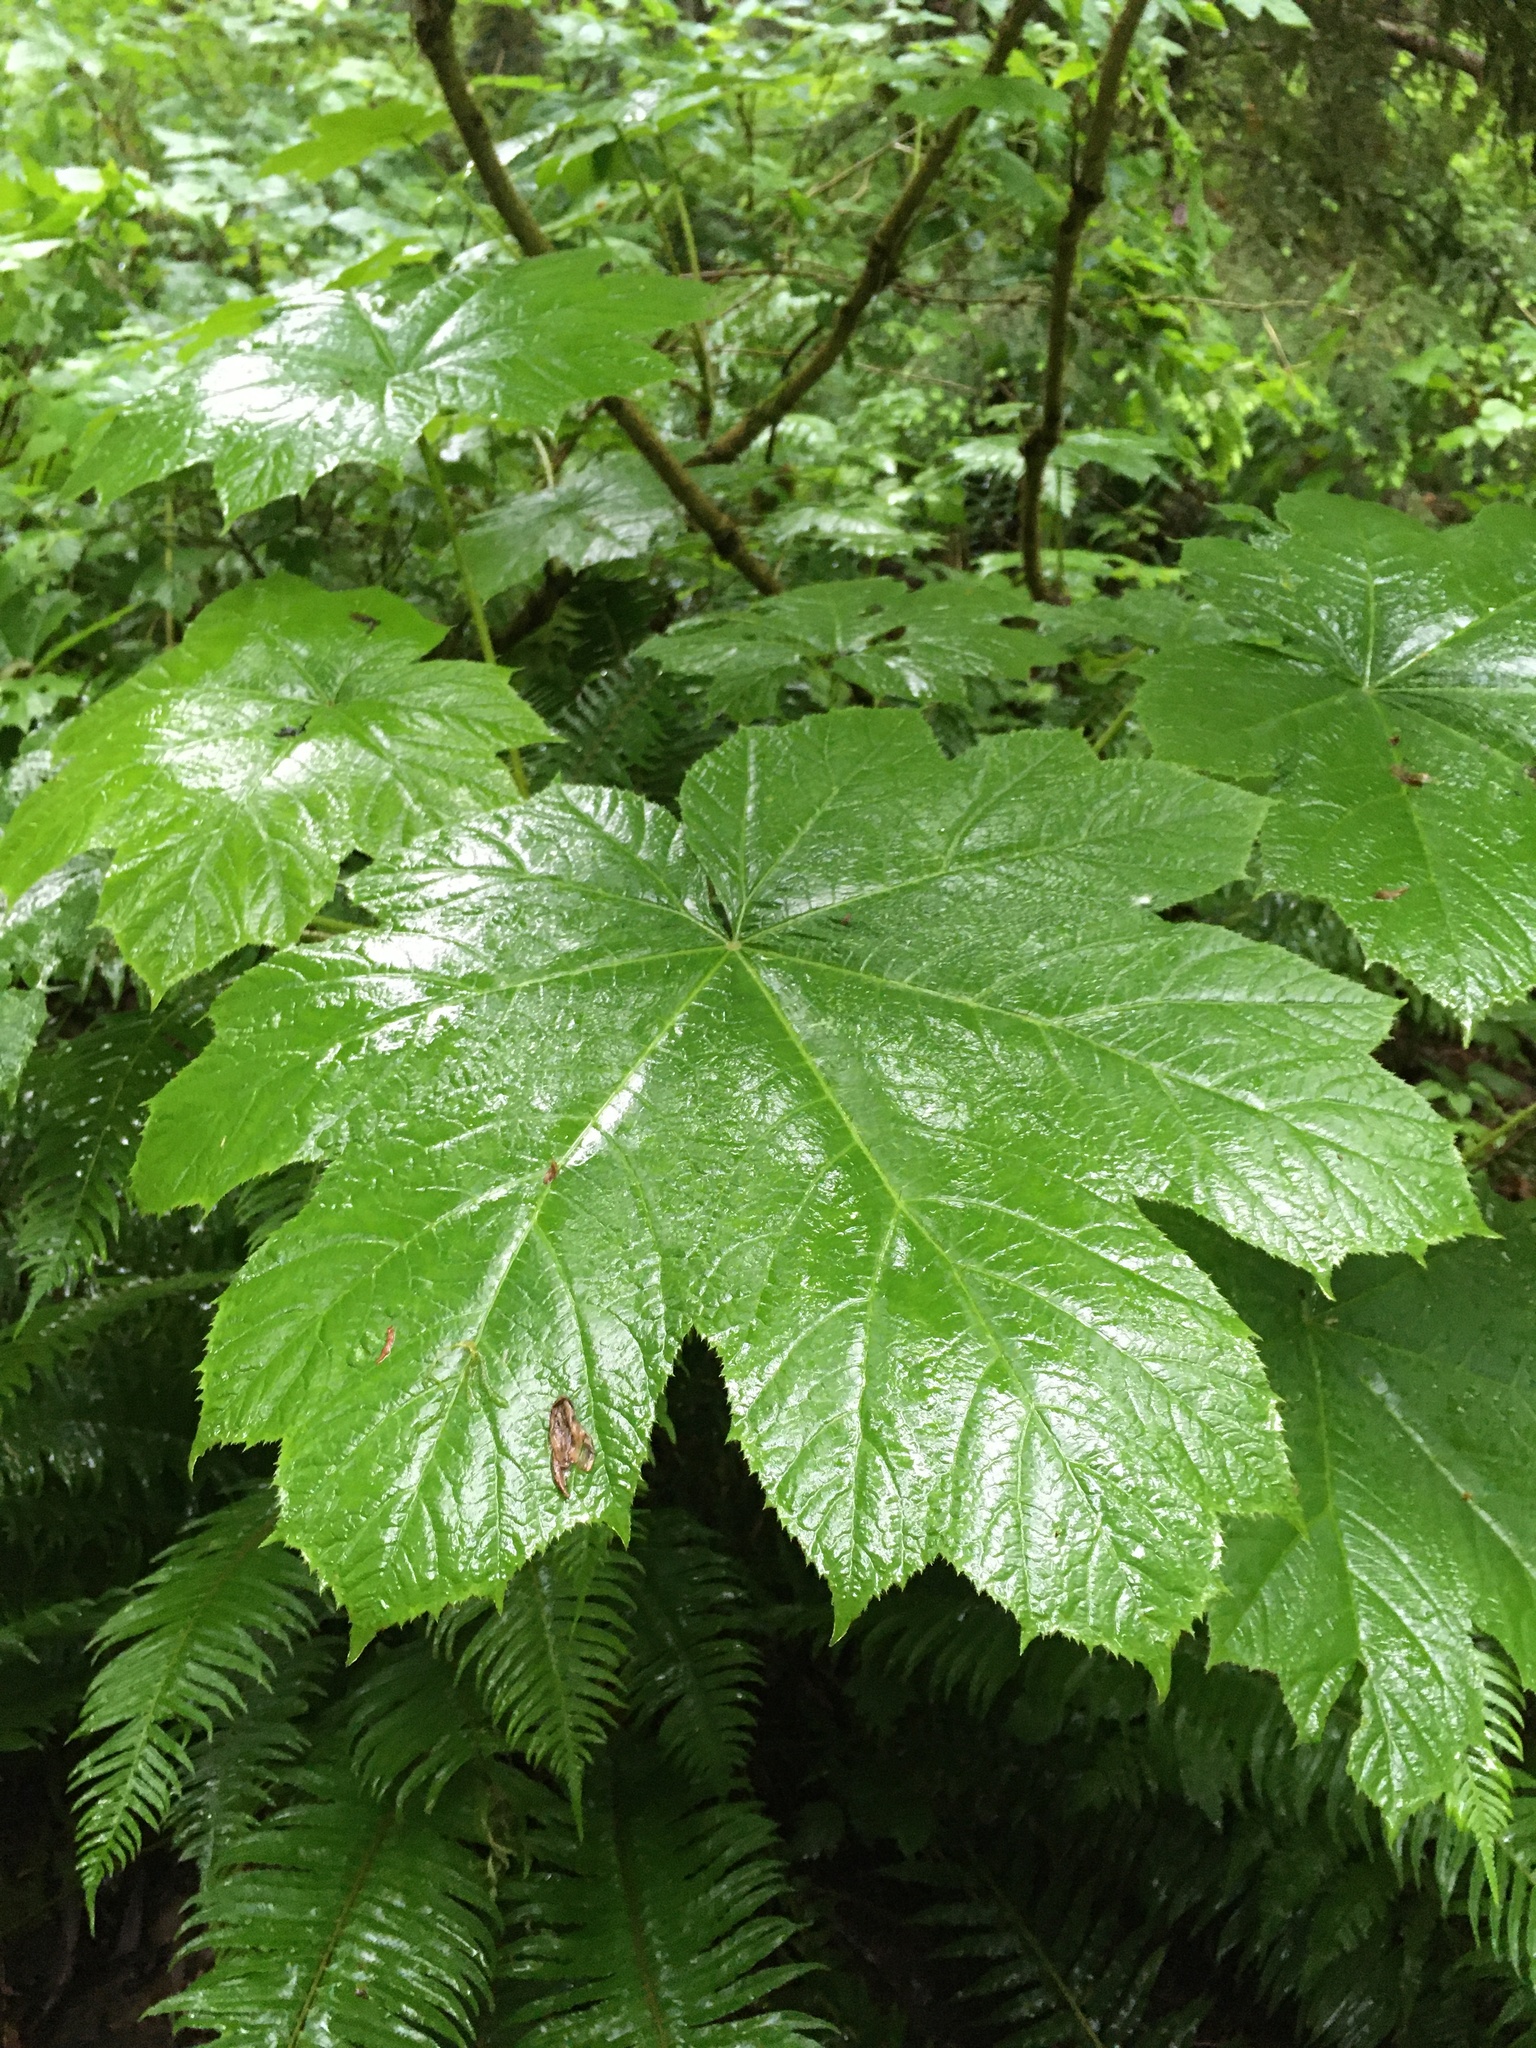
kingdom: Plantae
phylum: Tracheophyta
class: Magnoliopsida
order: Apiales
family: Araliaceae
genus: Oplopanax
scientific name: Oplopanax horridus
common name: Devil's walking-stick
